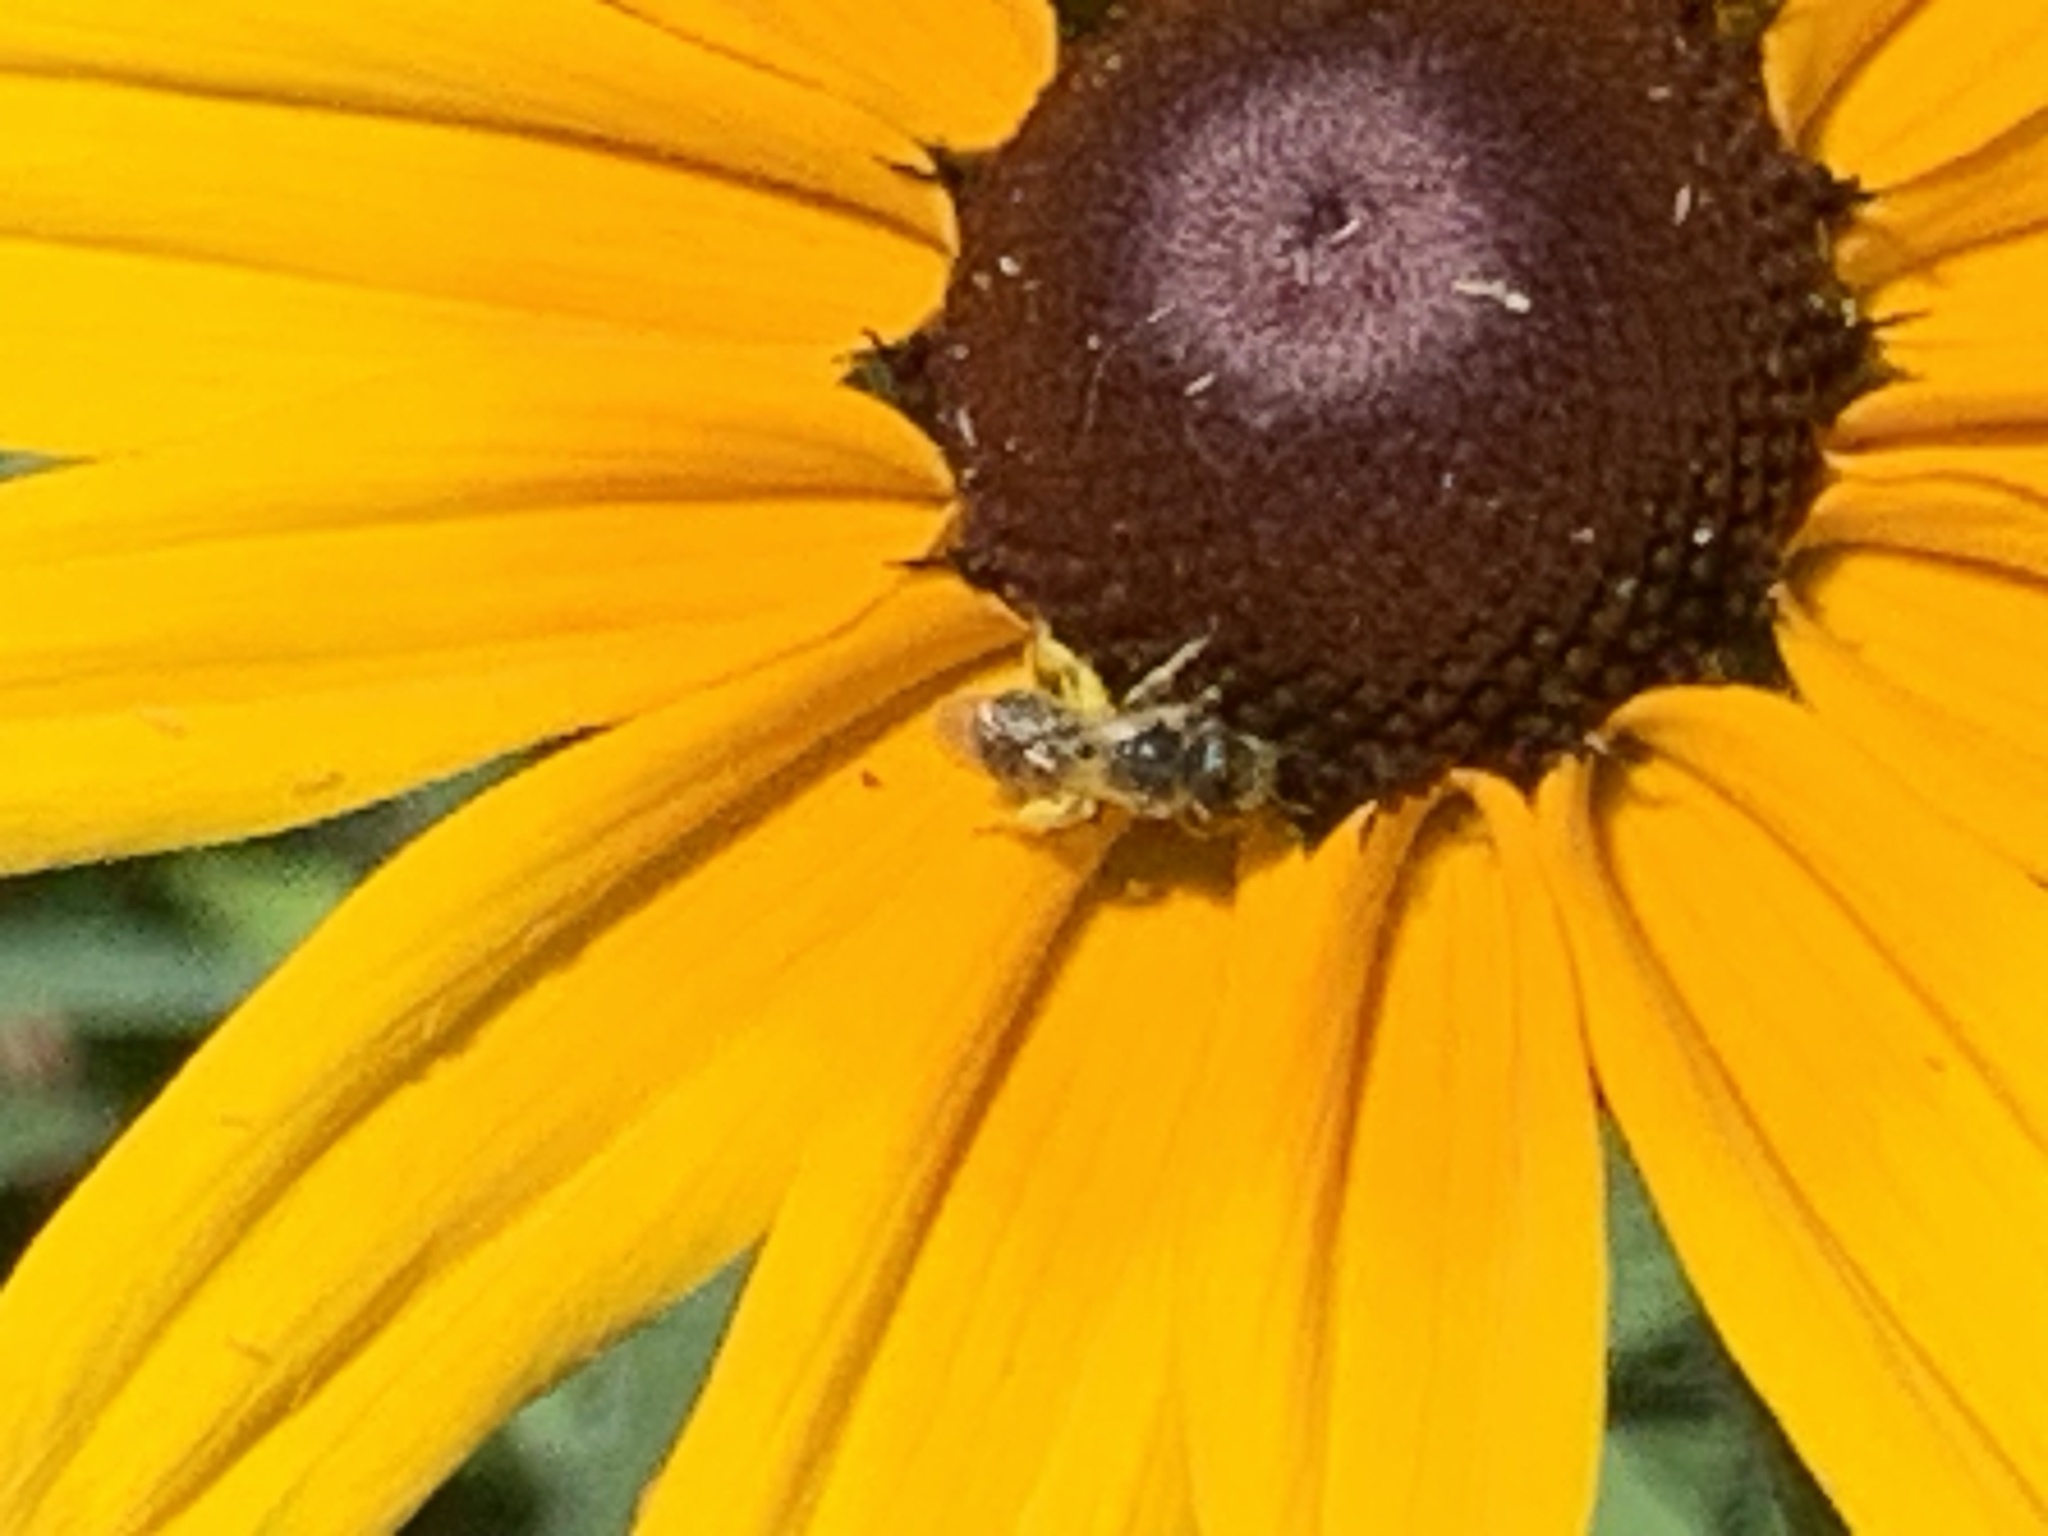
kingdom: Animalia
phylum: Arthropoda
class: Insecta
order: Hymenoptera
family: Halictidae
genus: Halictus
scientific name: Halictus ligatus
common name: Ligated furrow bee
